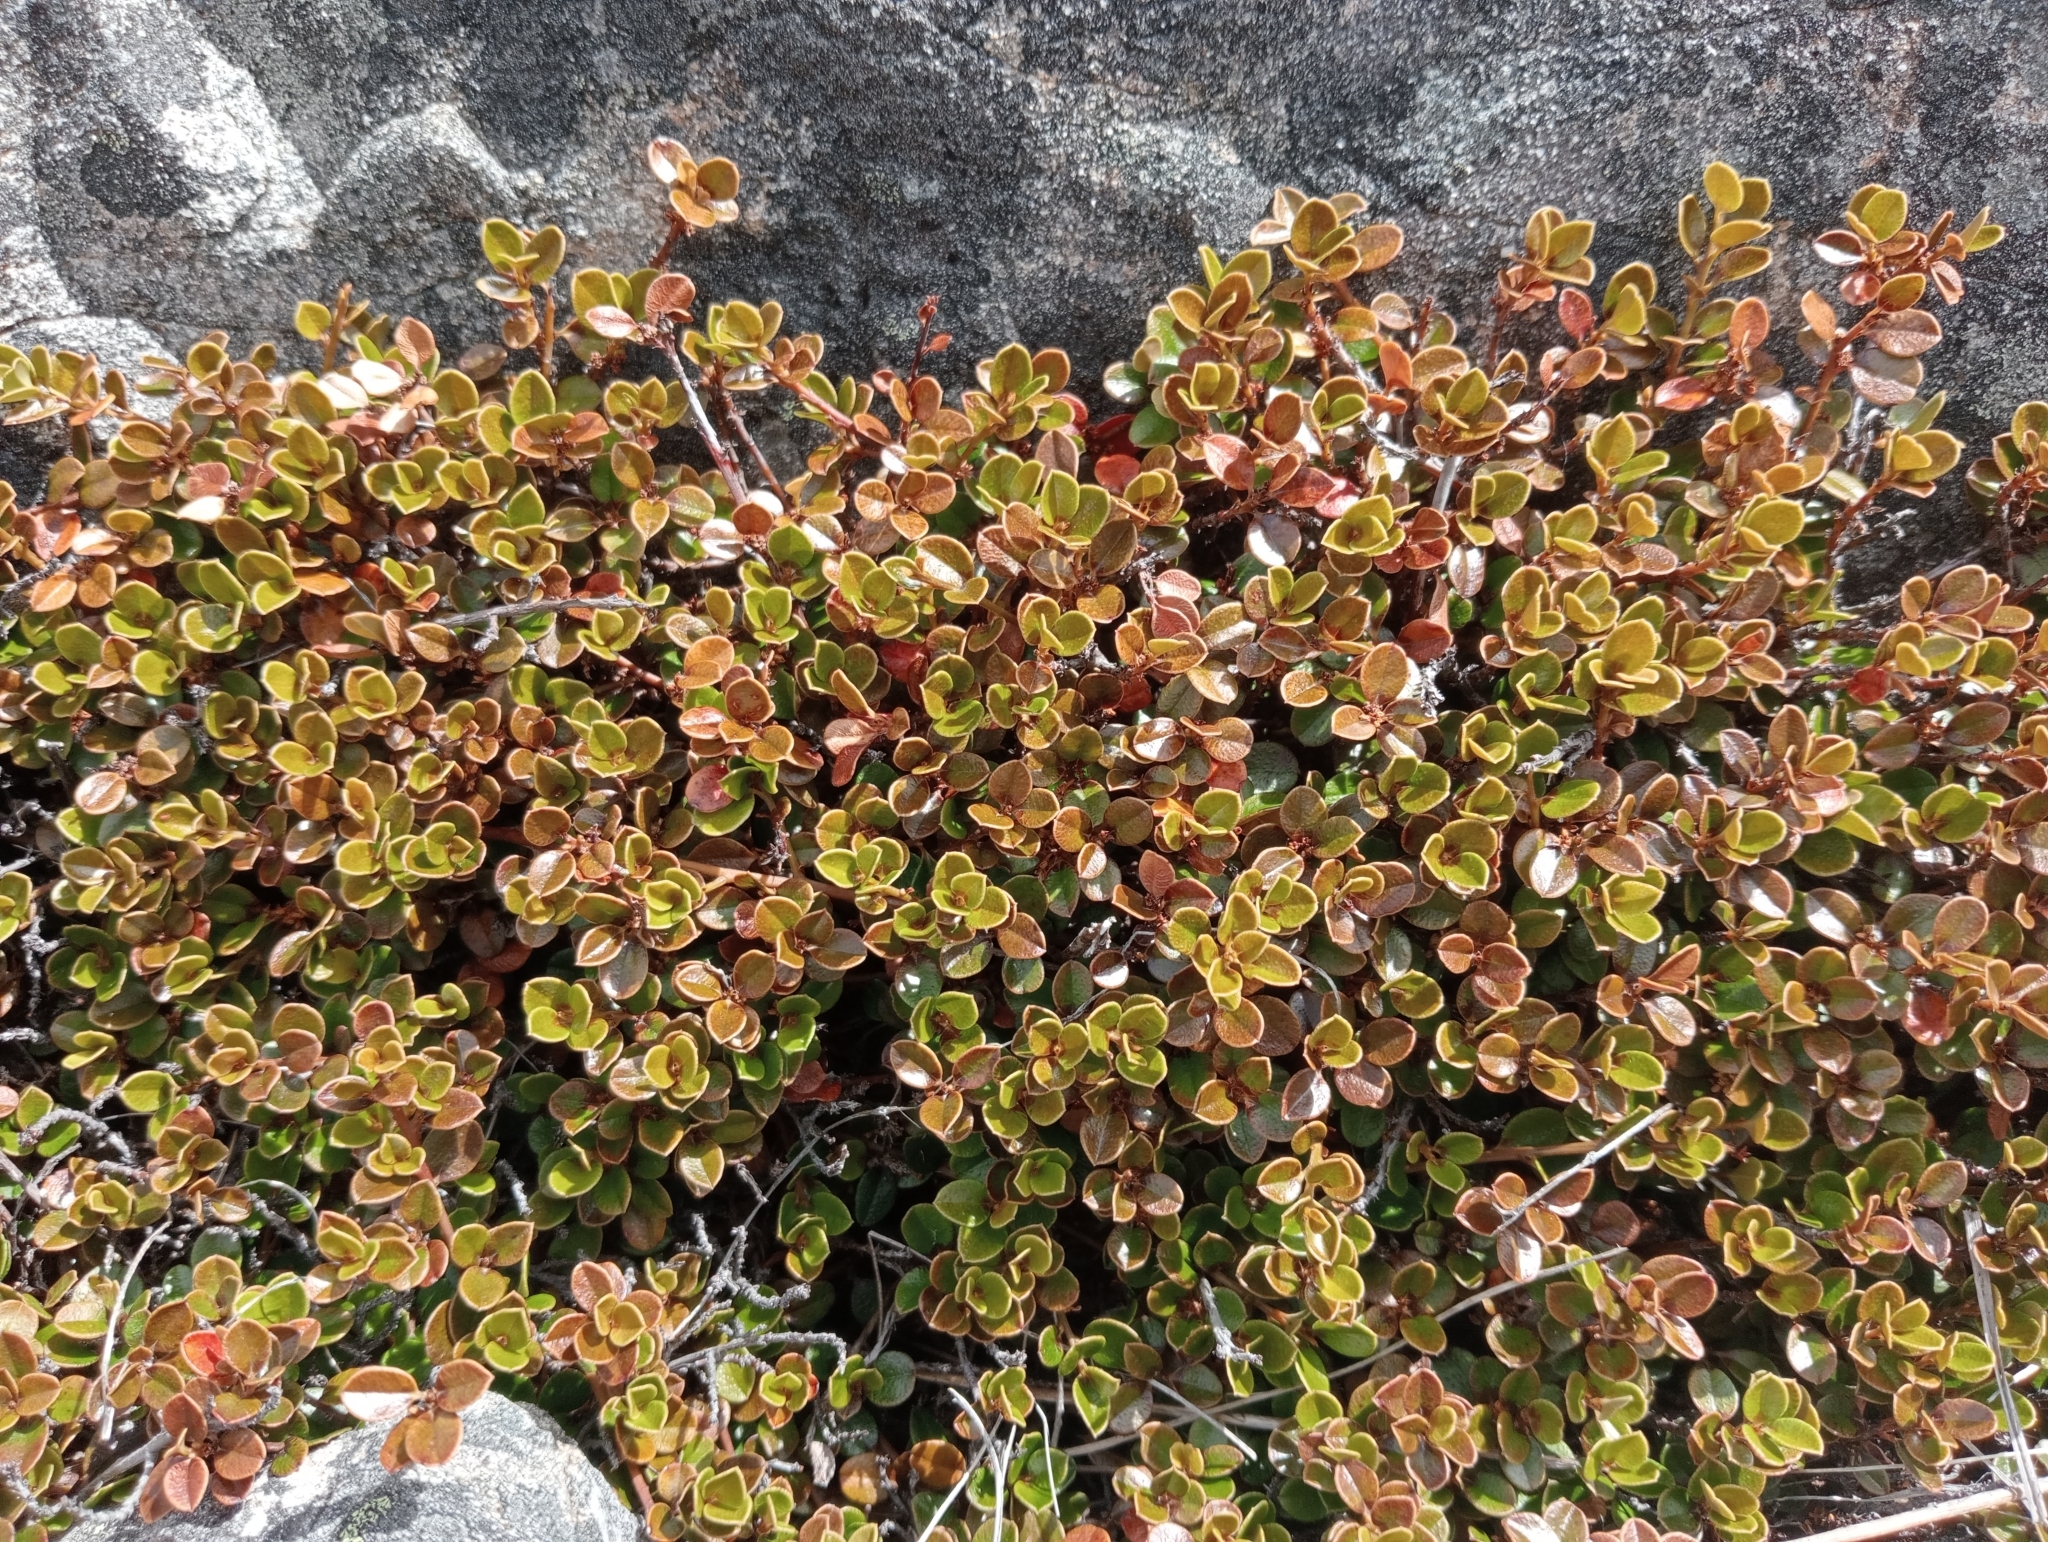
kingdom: Plantae
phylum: Tracheophyta
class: Magnoliopsida
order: Ericales
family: Primulaceae
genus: Myrsine
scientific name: Myrsine nummularia
